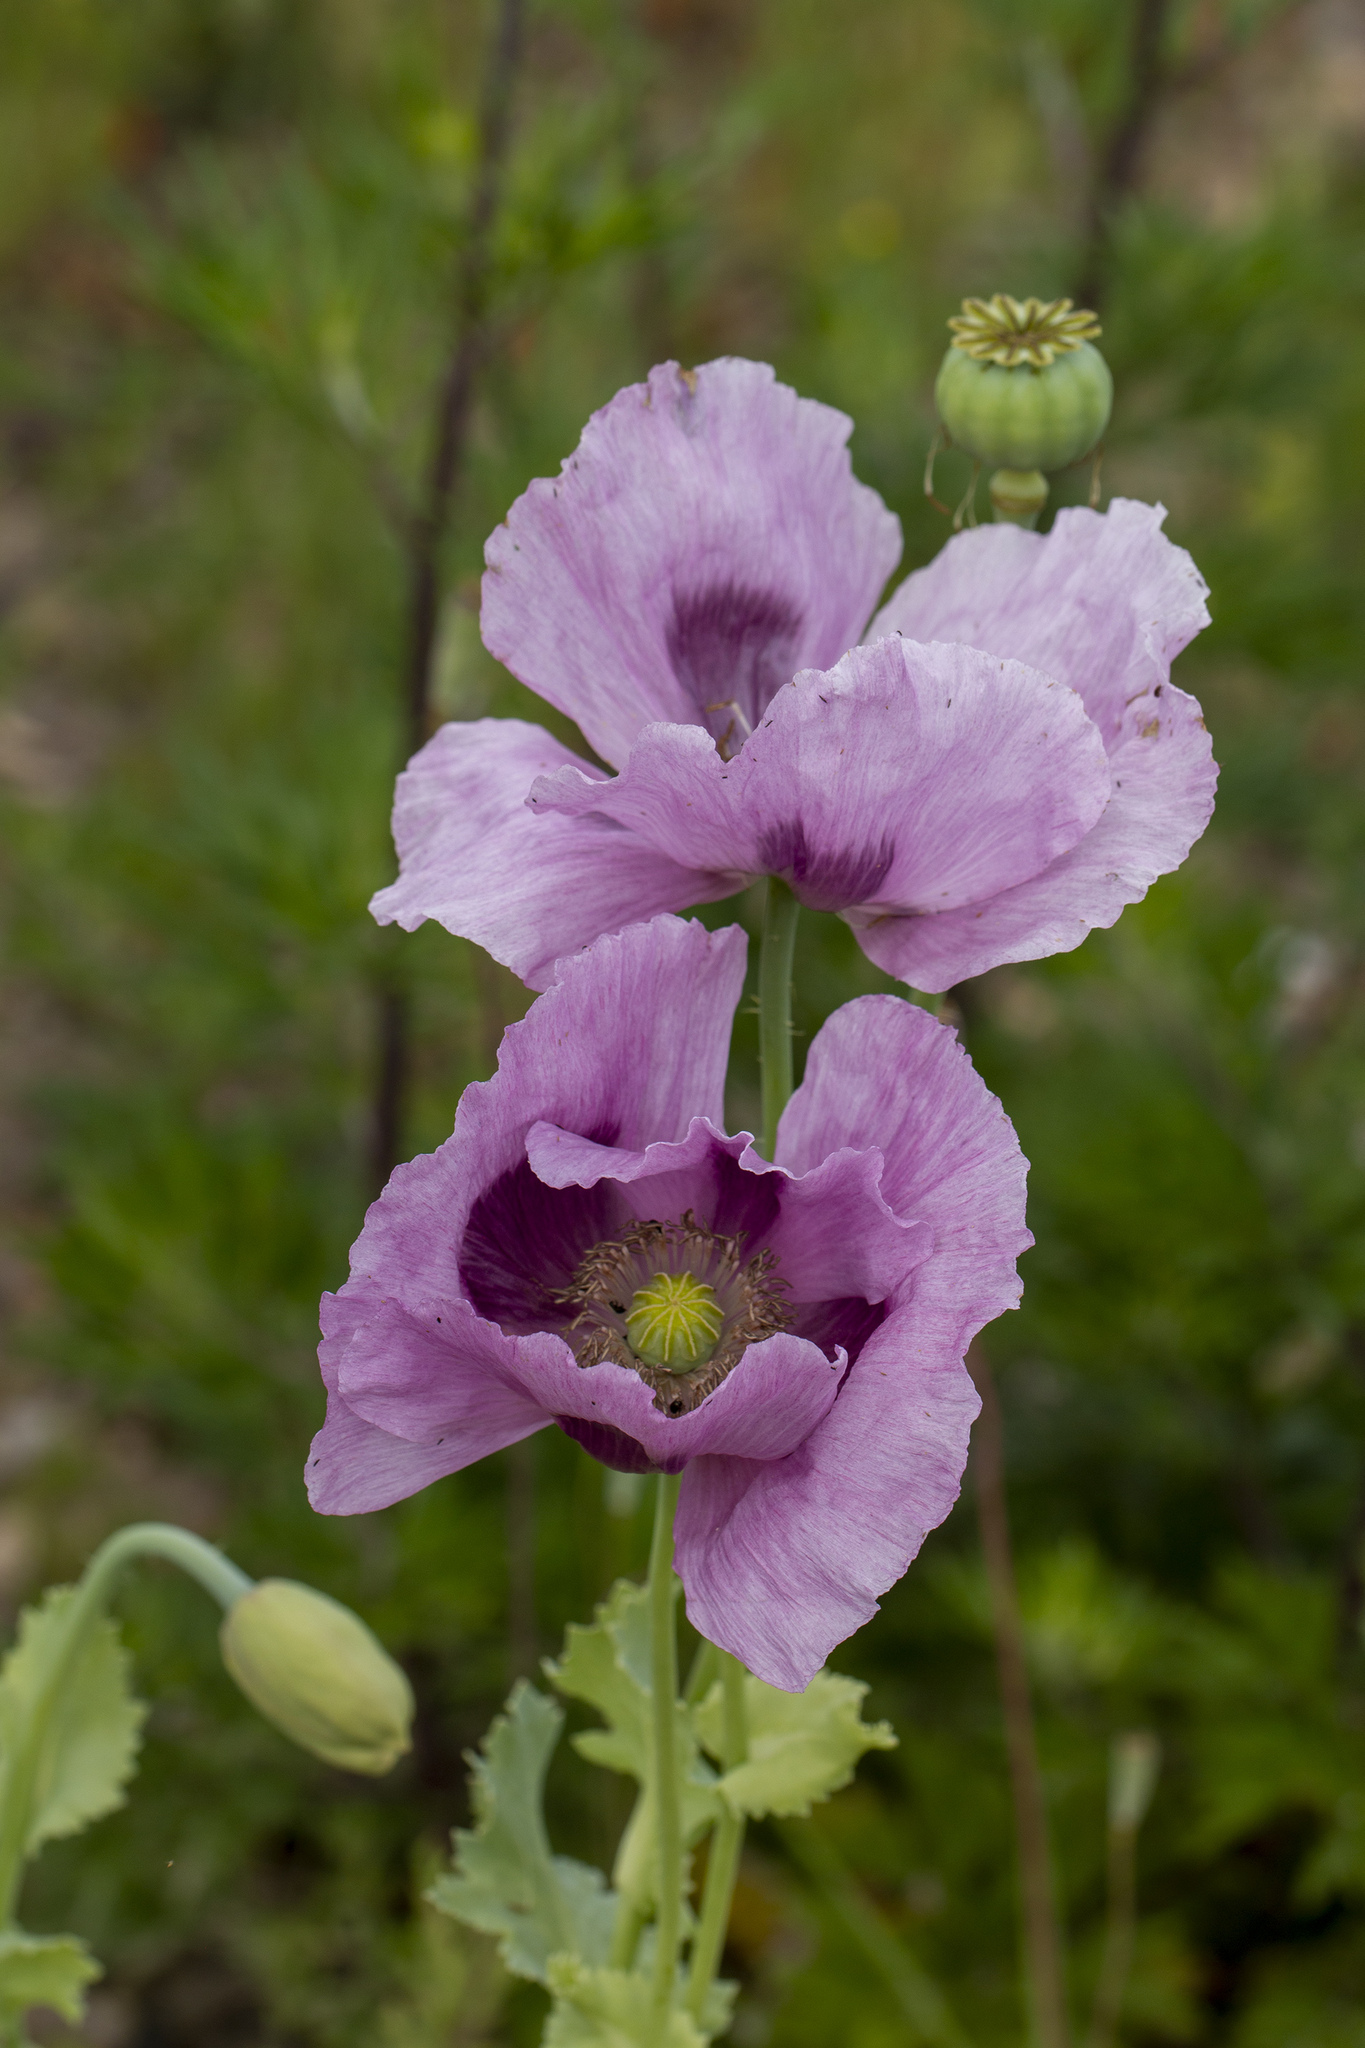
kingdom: Plantae
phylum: Tracheophyta
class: Magnoliopsida
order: Ranunculales
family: Papaveraceae
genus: Papaver
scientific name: Papaver somniferum
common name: Opium poppy
